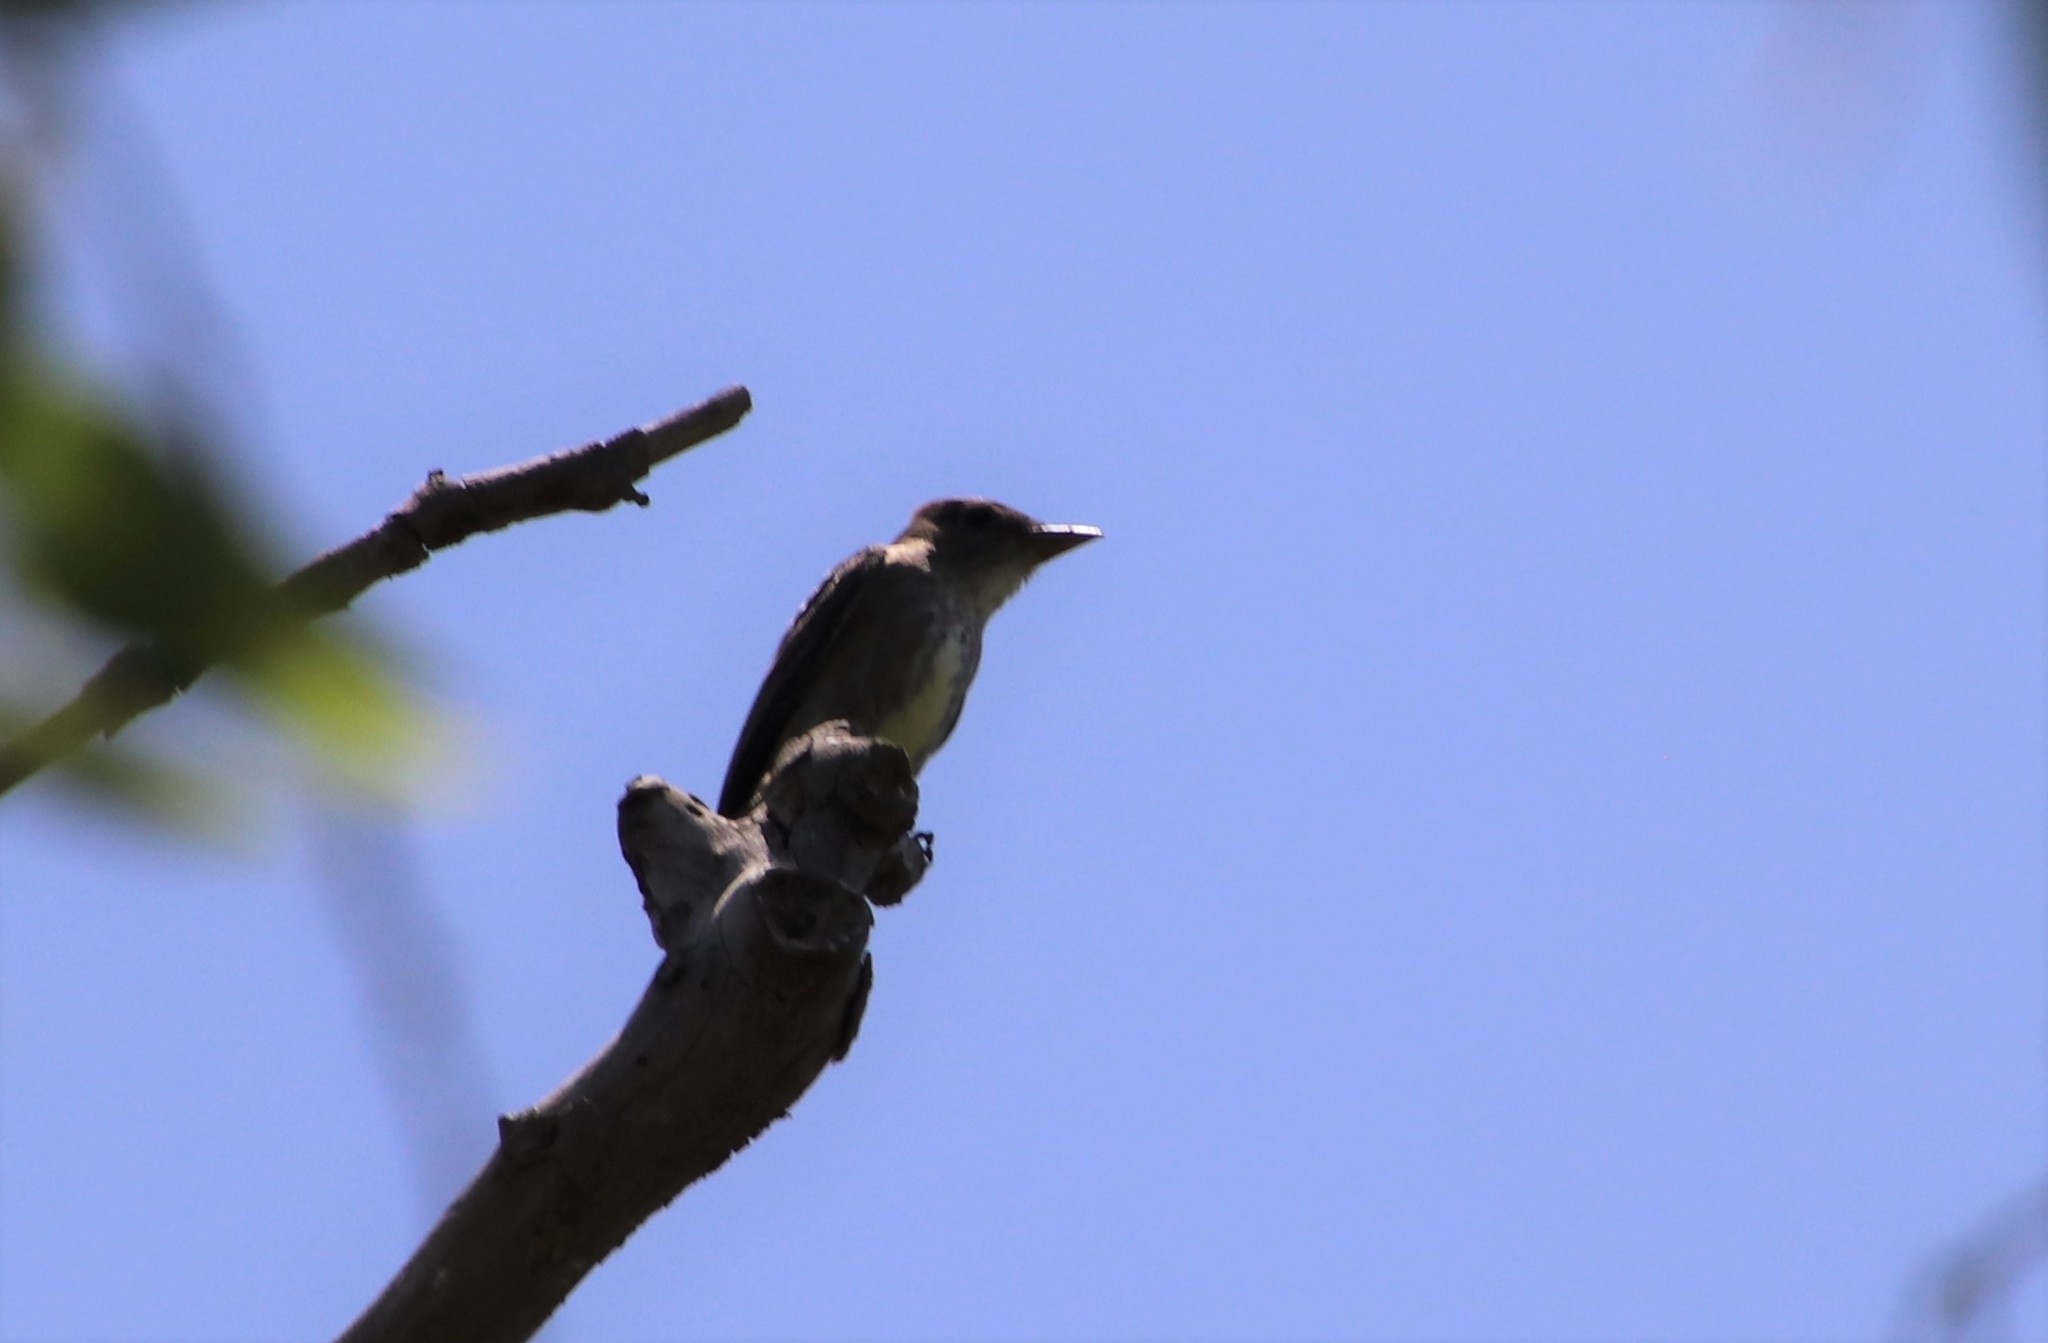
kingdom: Animalia
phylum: Chordata
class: Aves
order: Passeriformes
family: Tyrannidae
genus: Contopus
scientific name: Contopus cooperi
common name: Olive-sided flycatcher
